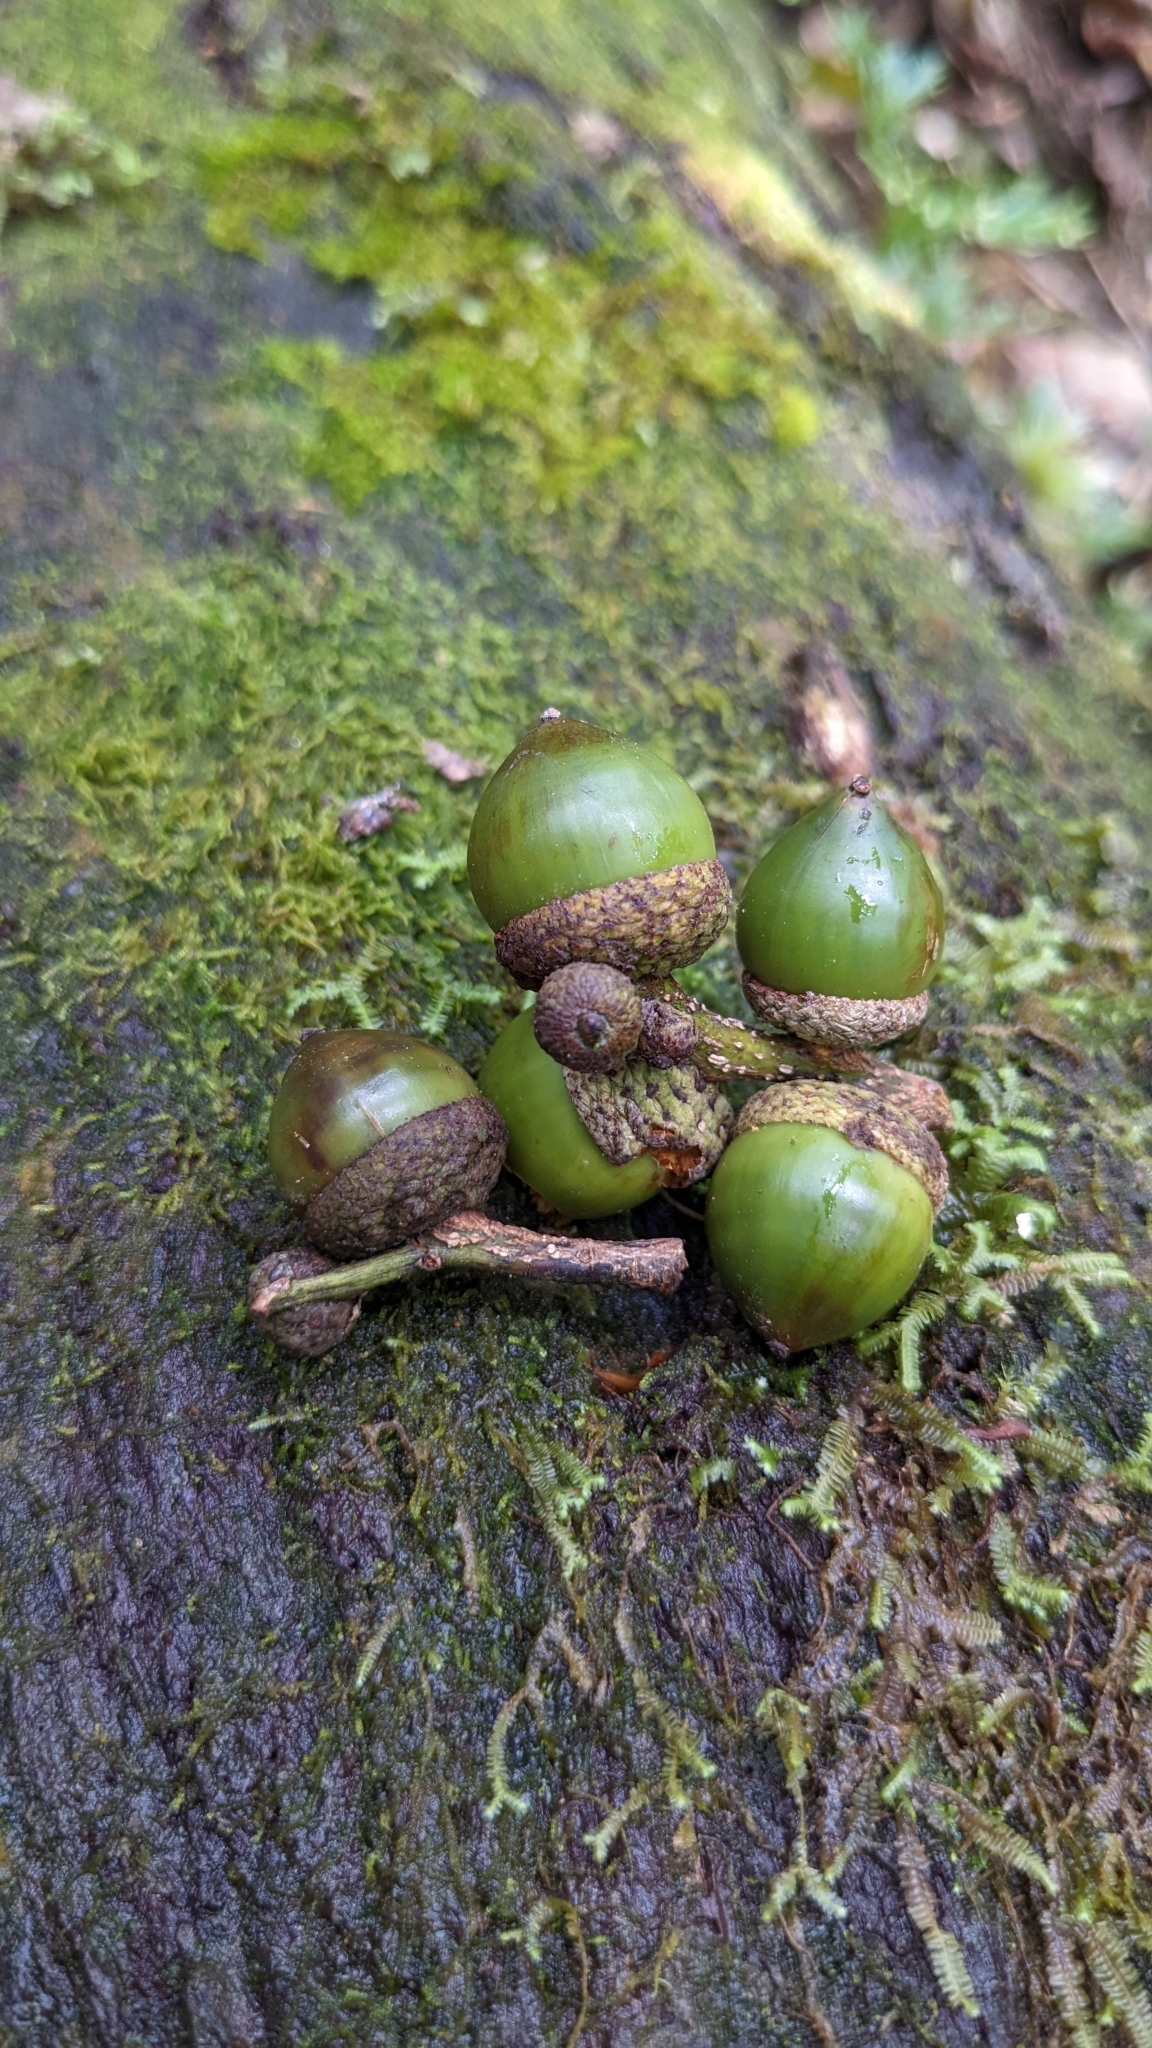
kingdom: Plantae
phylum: Tracheophyta
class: Magnoliopsida
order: Fagales
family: Fagaceae
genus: Lithocarpus
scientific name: Lithocarpus dodonaeifolius
